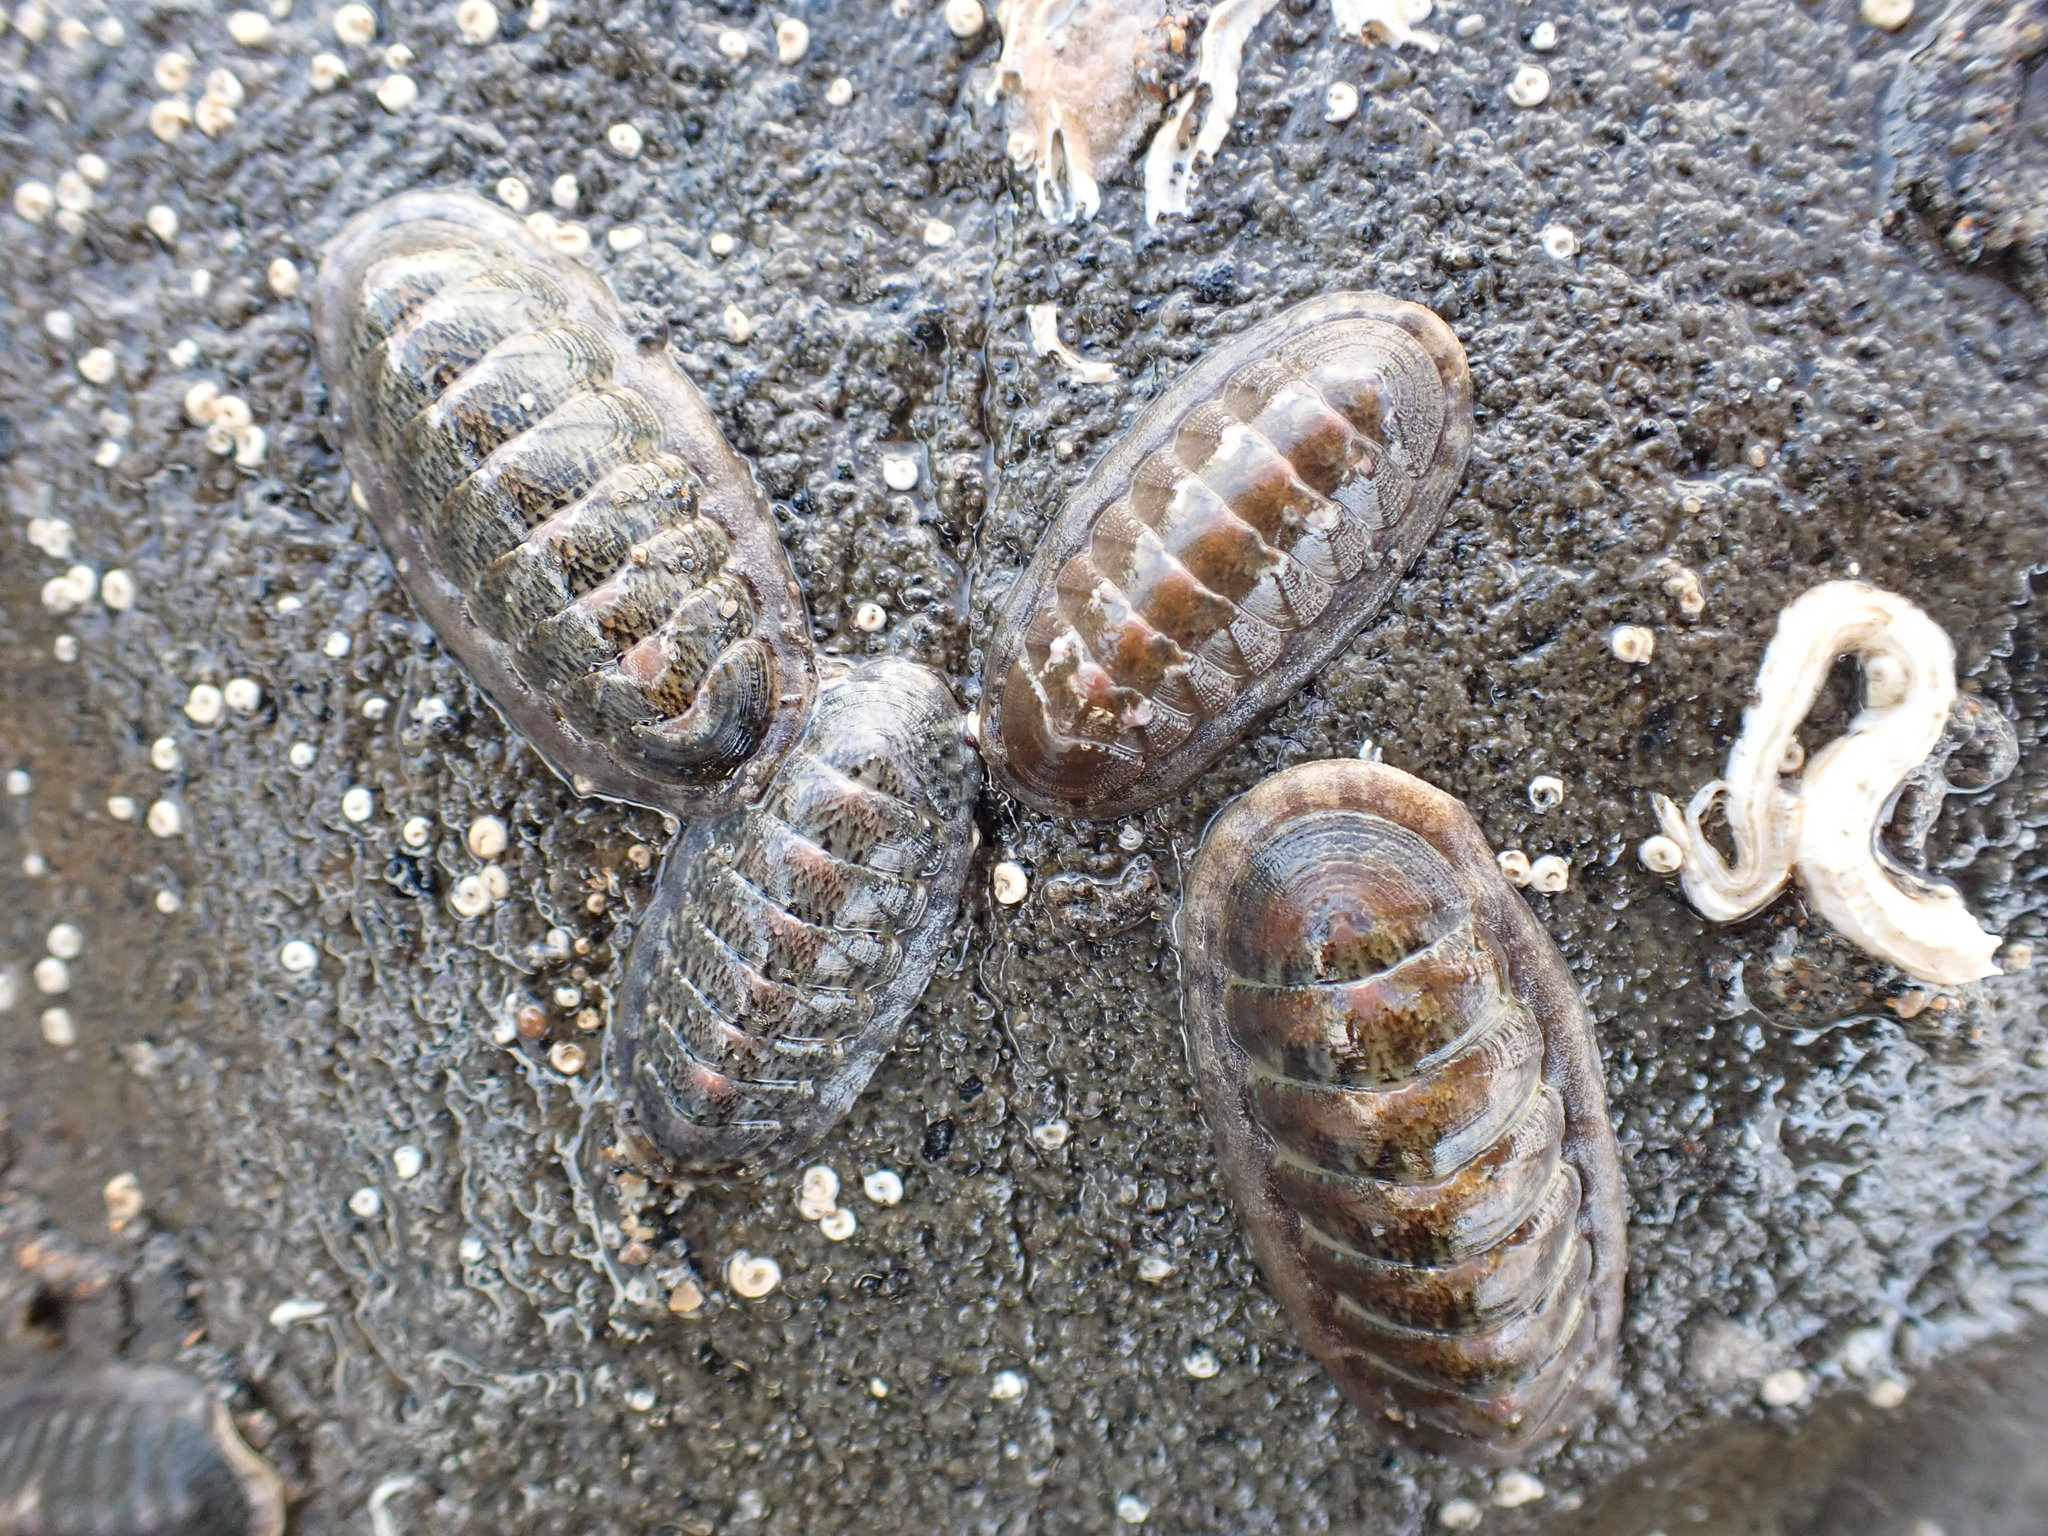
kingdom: Animalia
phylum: Mollusca
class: Polyplacophora
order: Chitonida
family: Ischnochitonidae
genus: Ischnochiton
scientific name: Ischnochiton maorianus
